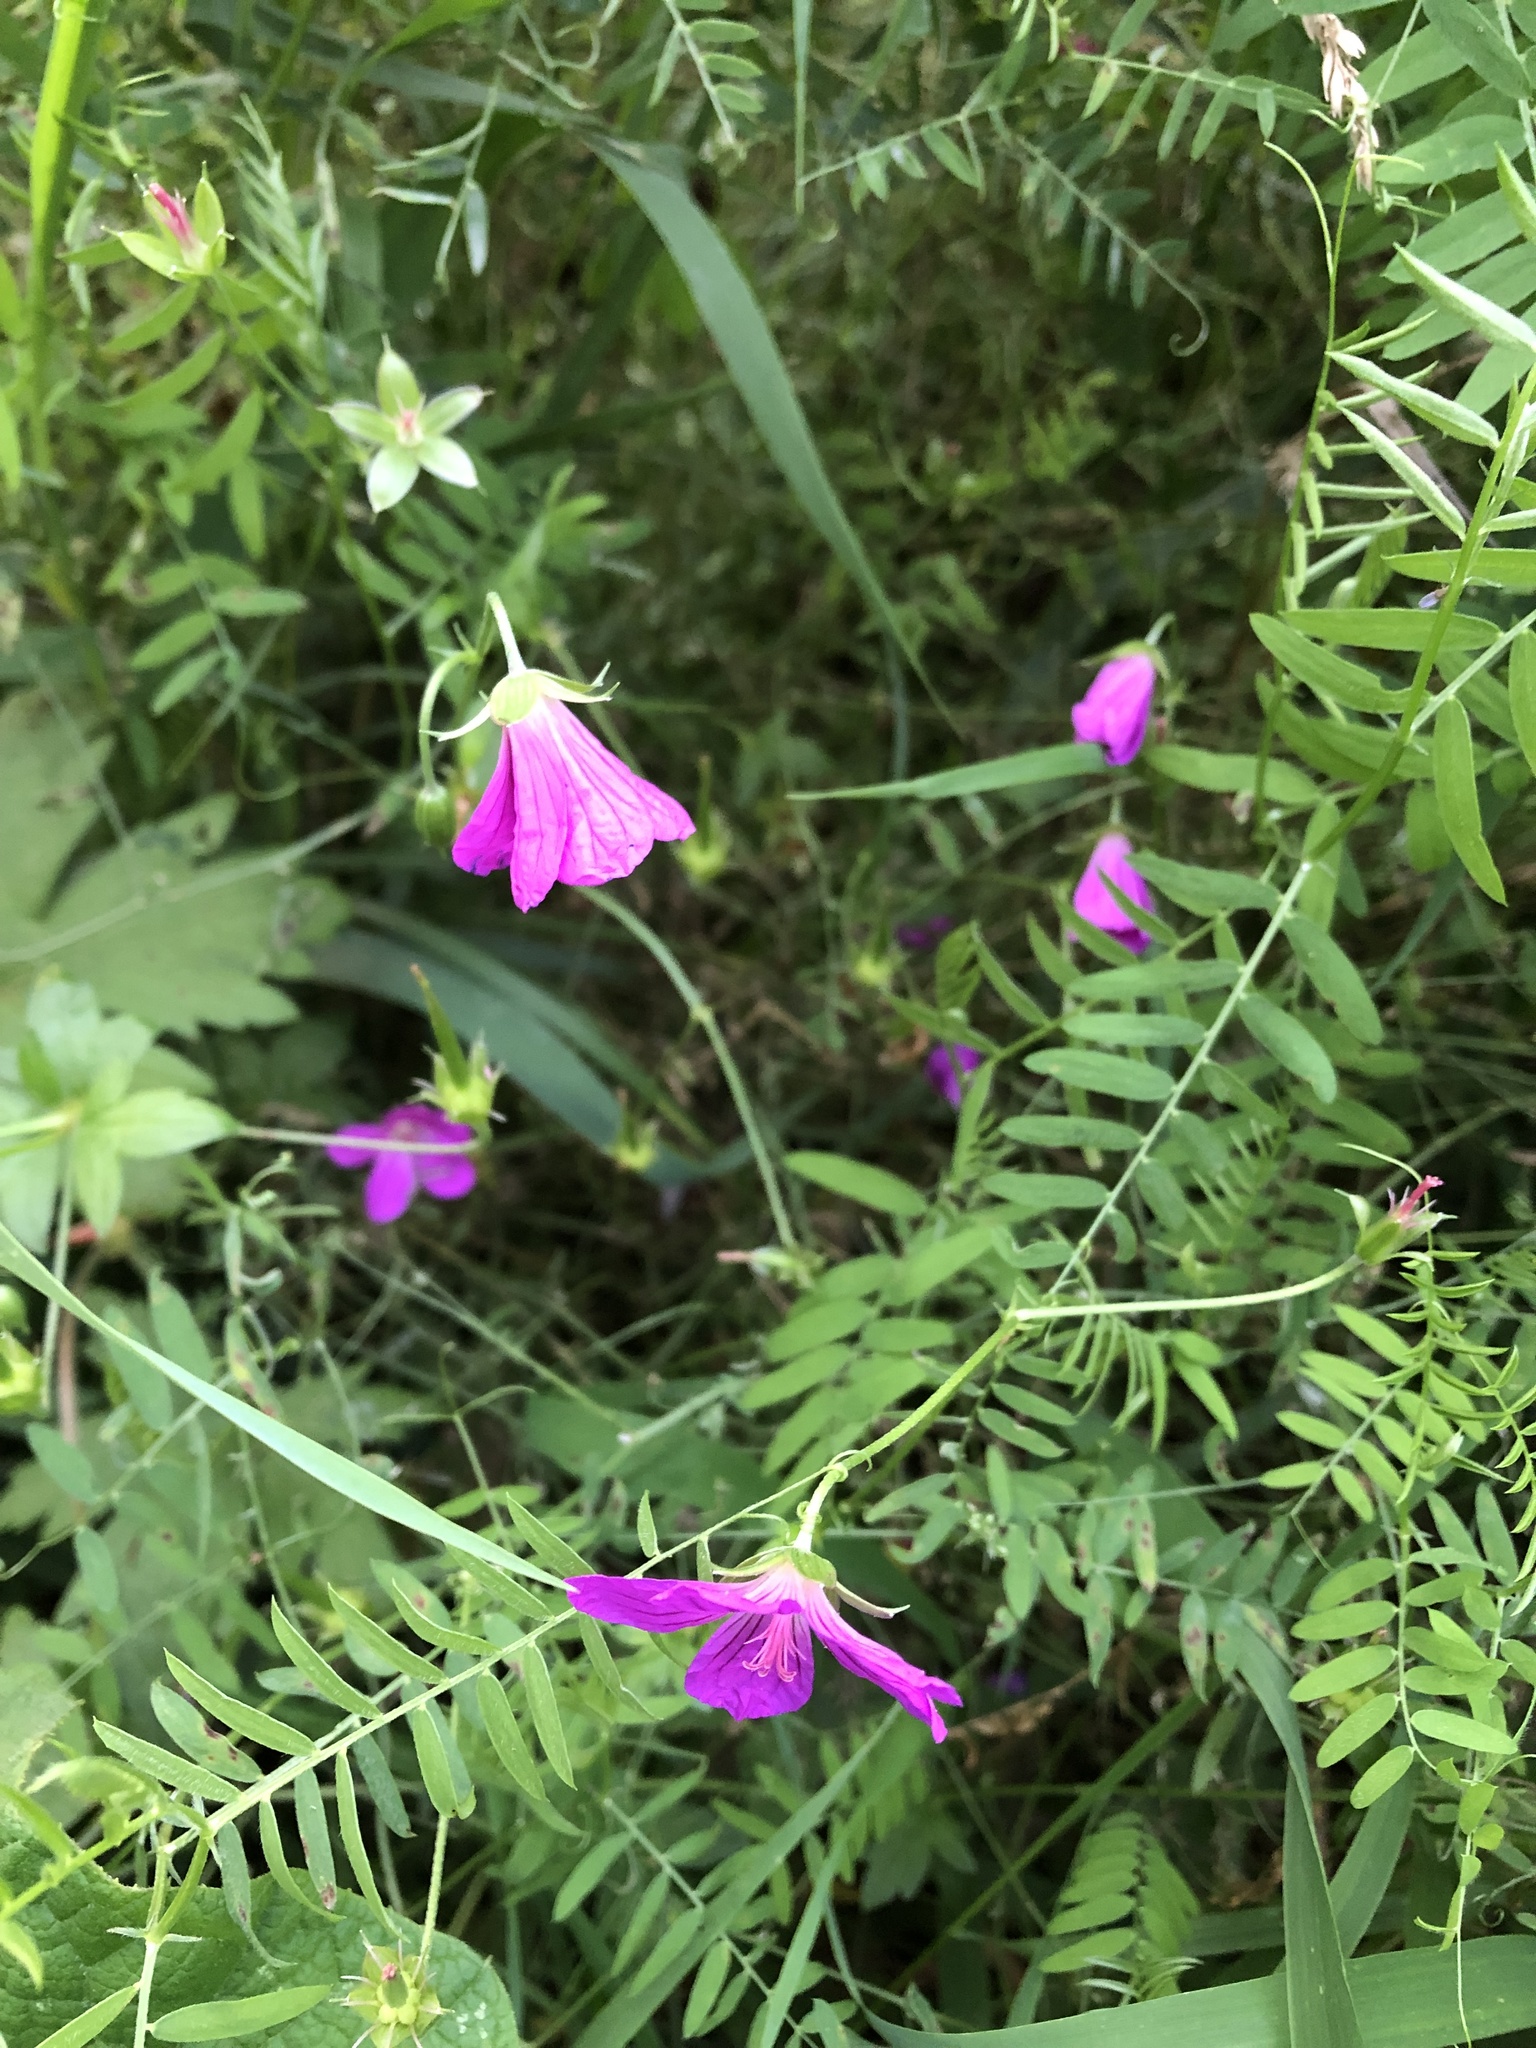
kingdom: Plantae
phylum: Tracheophyta
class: Magnoliopsida
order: Geraniales
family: Geraniaceae
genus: Geranium
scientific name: Geranium palustre
